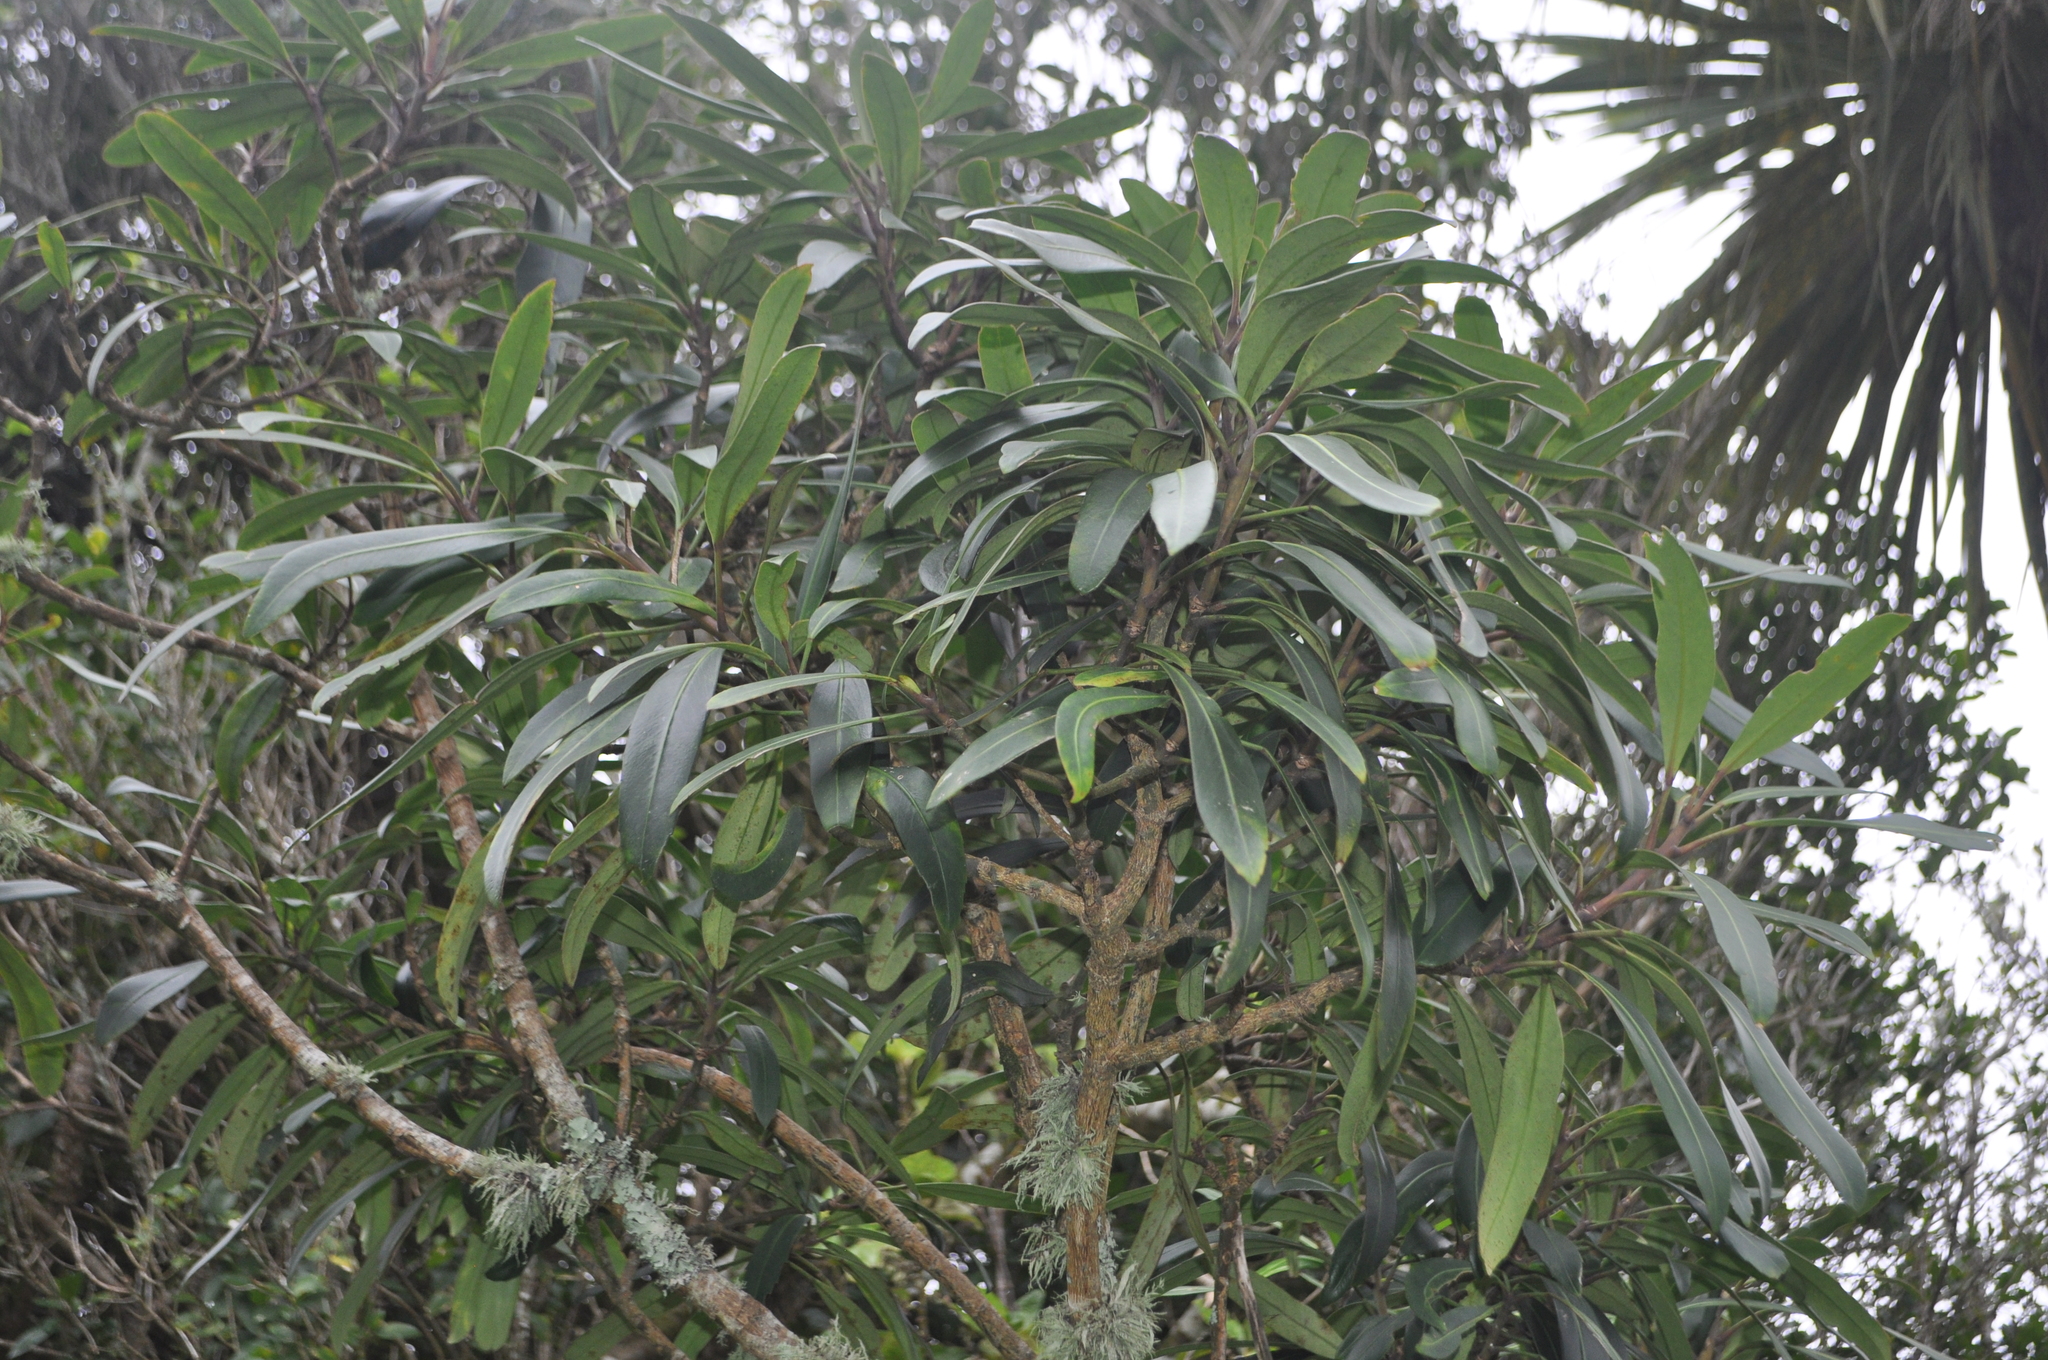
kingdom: Plantae
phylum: Tracheophyta
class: Magnoliopsida
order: Apiales
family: Araliaceae
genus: Pseudopanax
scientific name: Pseudopanax
